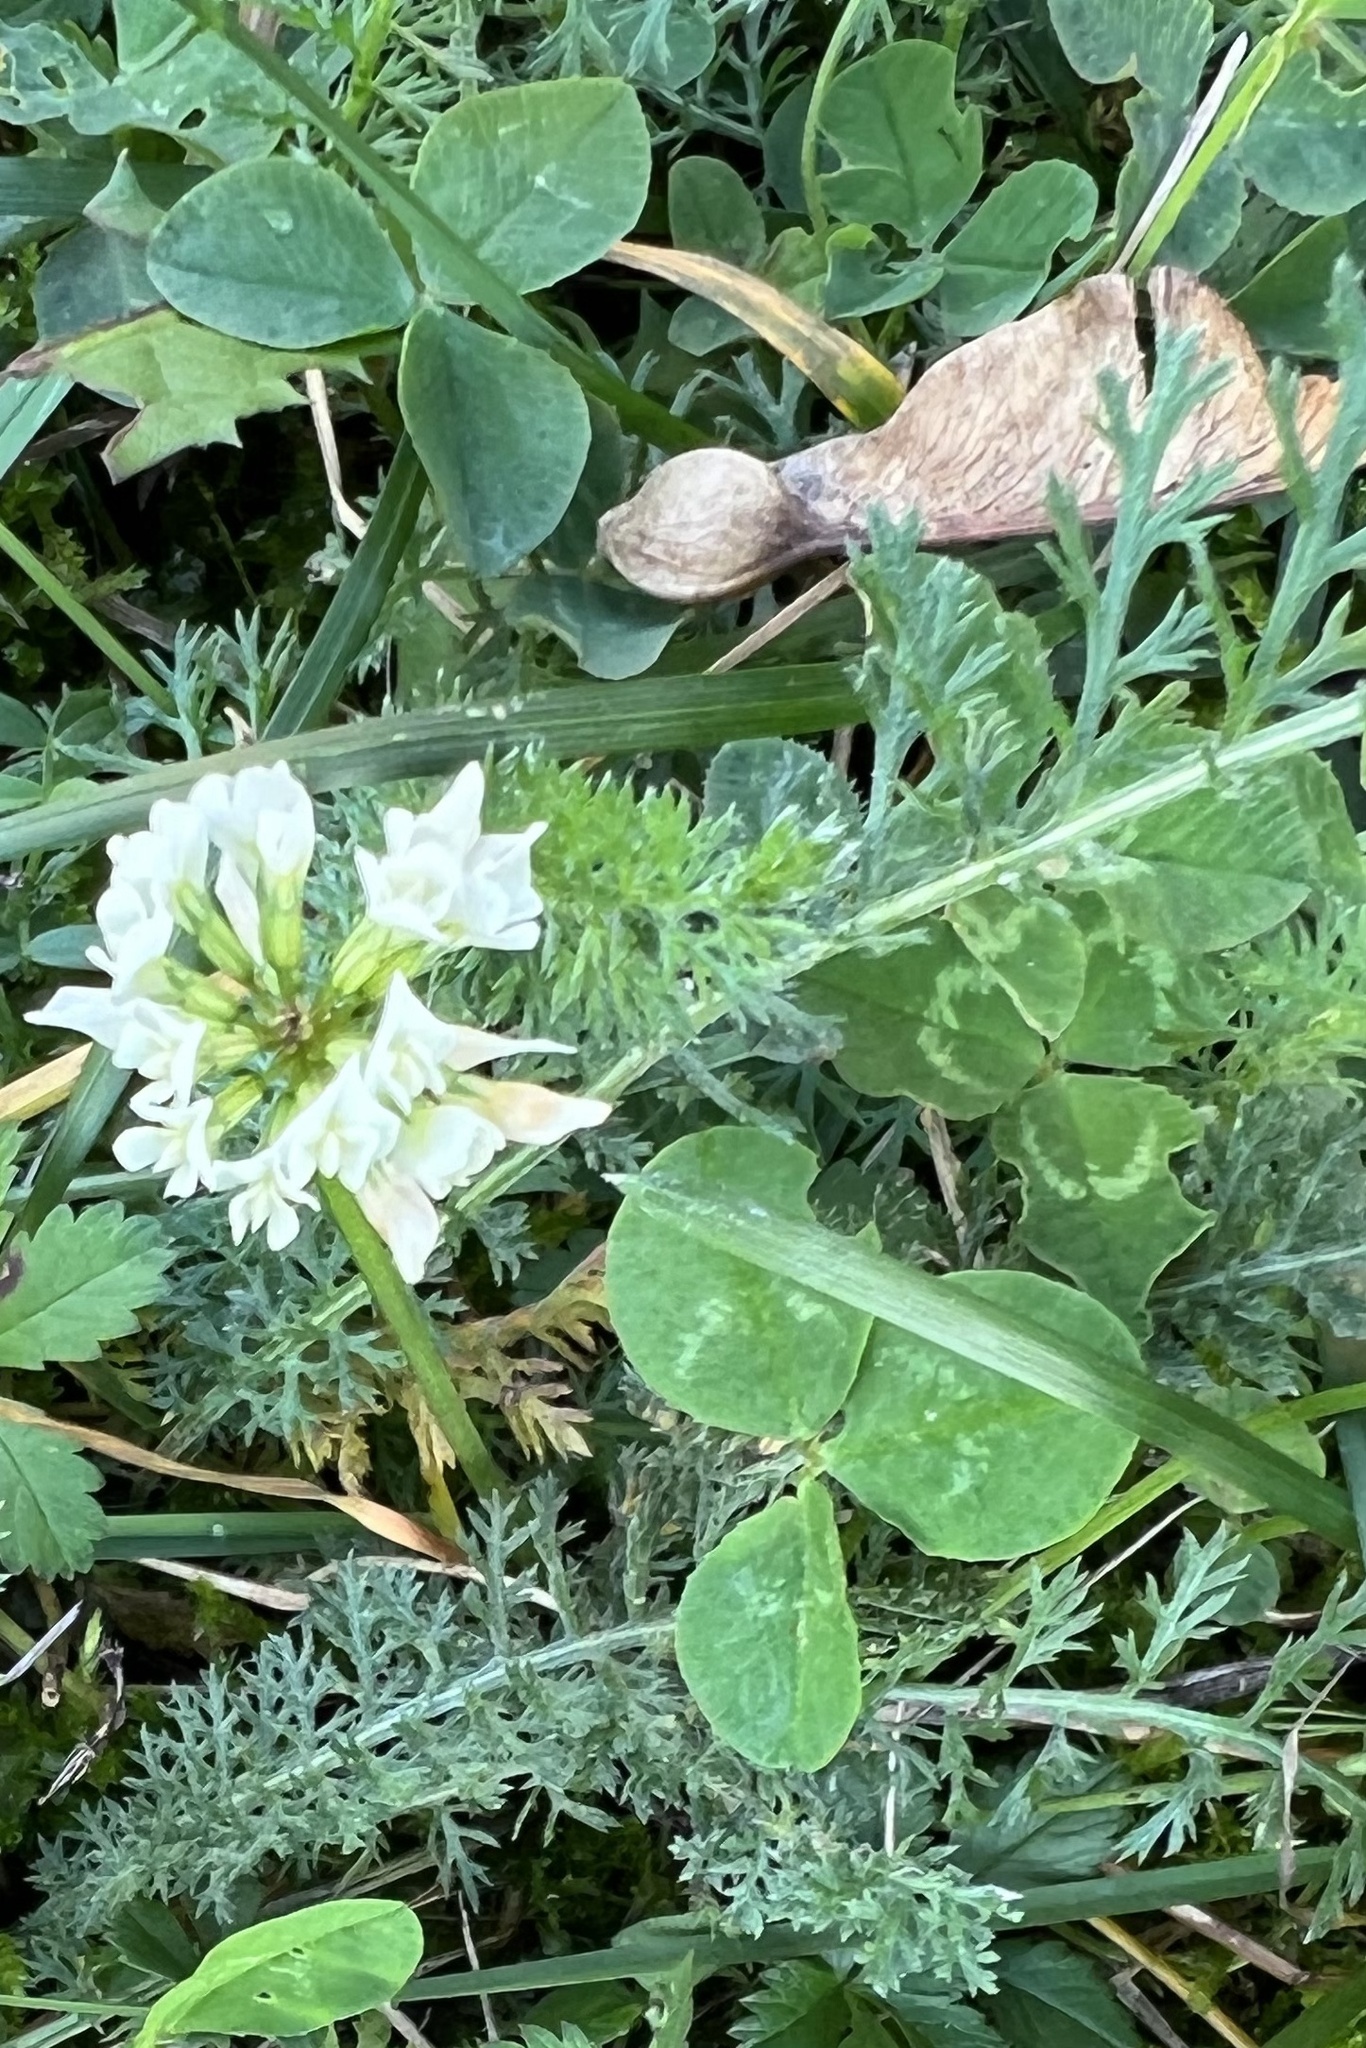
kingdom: Plantae
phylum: Tracheophyta
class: Magnoliopsida
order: Fabales
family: Fabaceae
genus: Trifolium
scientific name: Trifolium repens
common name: White clover
